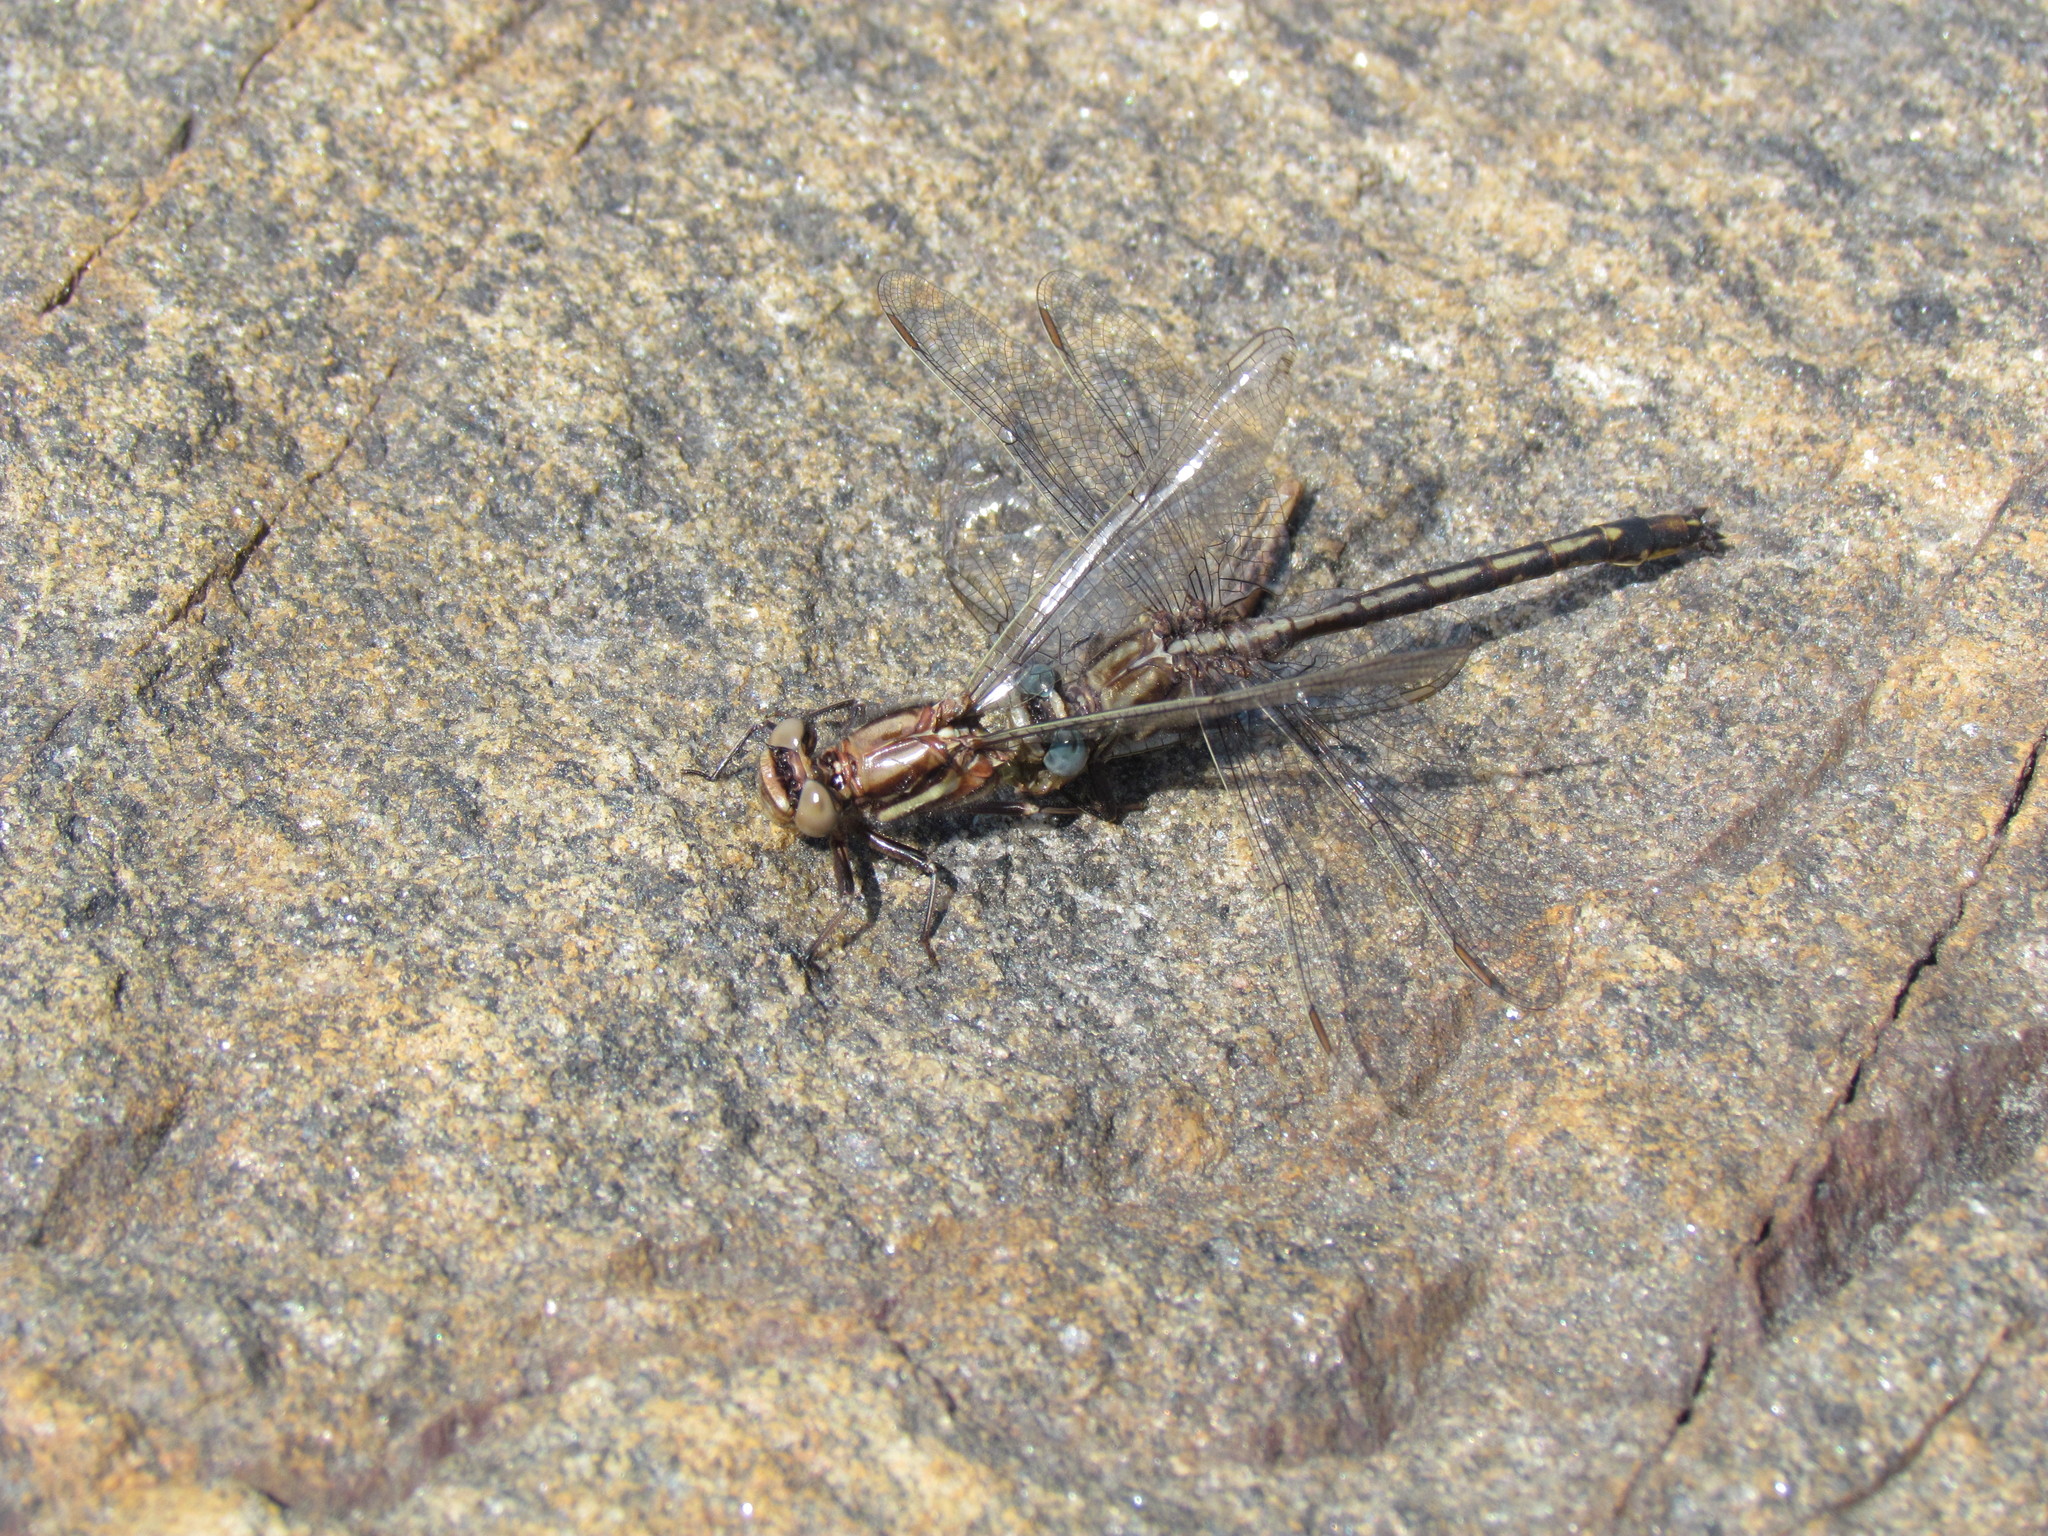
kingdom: Animalia
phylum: Arthropoda
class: Insecta
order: Odonata
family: Gomphidae
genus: Phanogomphus
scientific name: Phanogomphus spicatus
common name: Dusky clubtail
